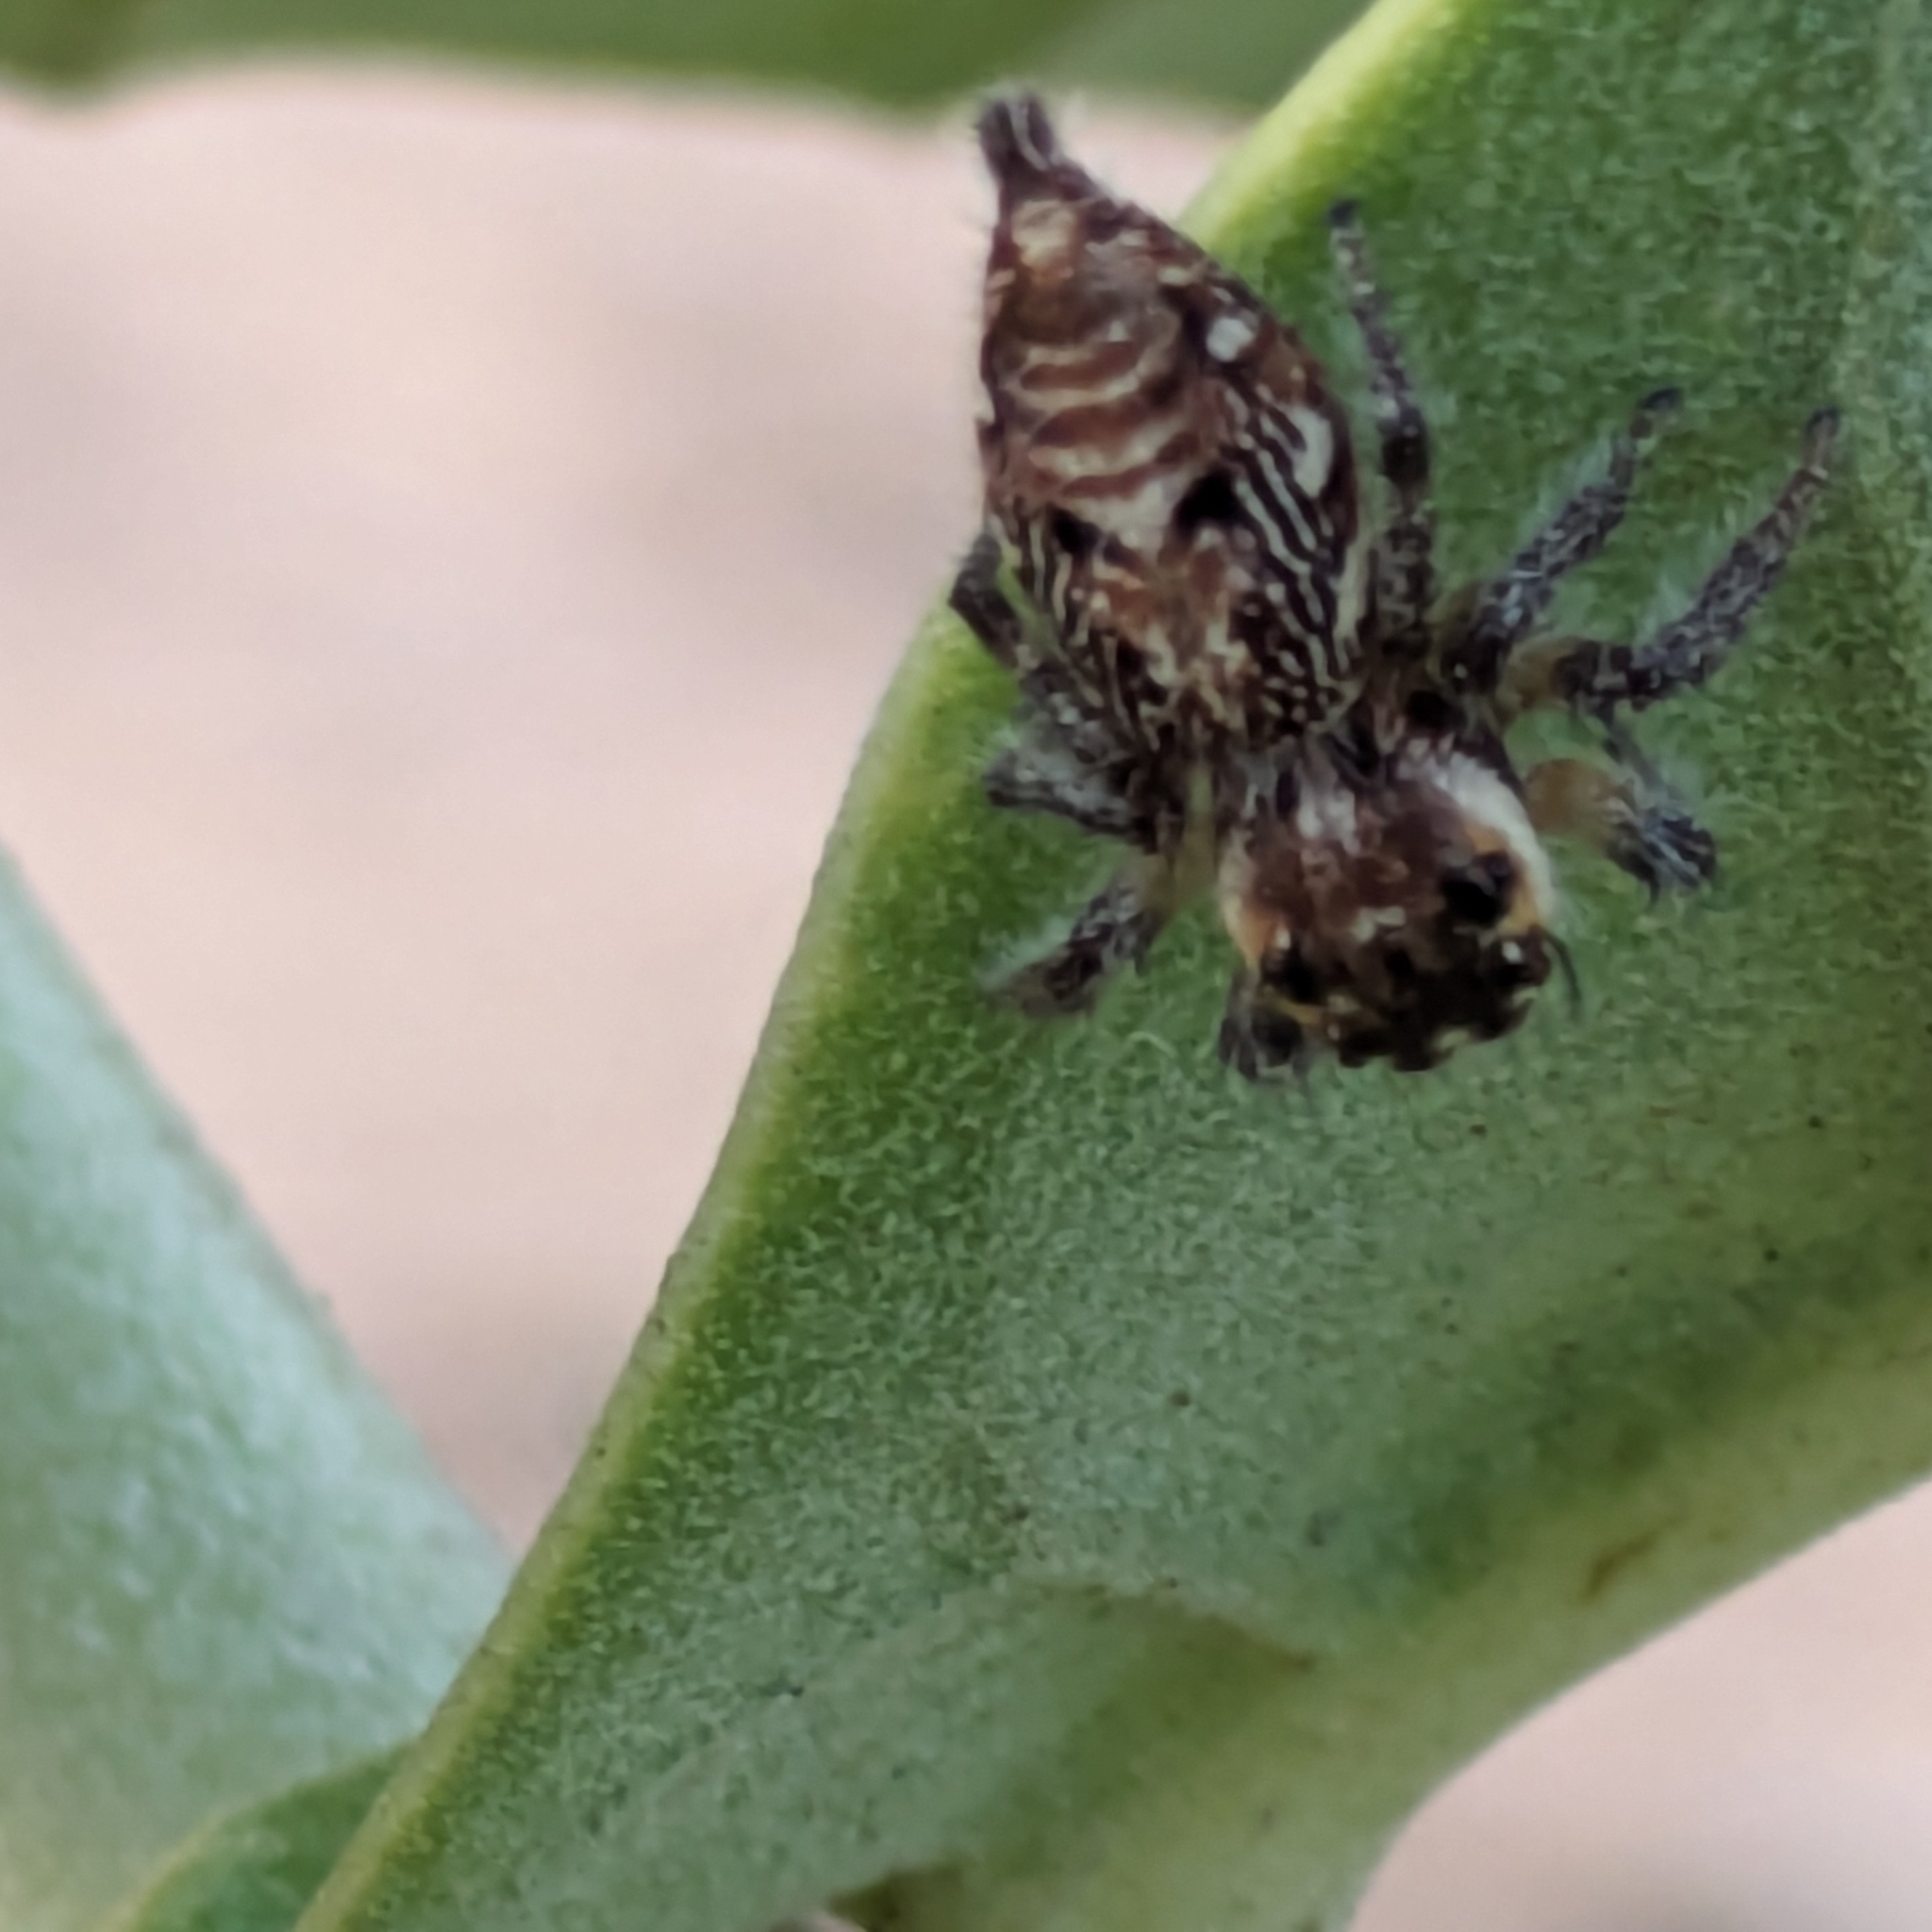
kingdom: Animalia
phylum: Arthropoda
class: Arachnida
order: Araneae
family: Salticidae
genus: Hyllus
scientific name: Hyllus semicupreus
